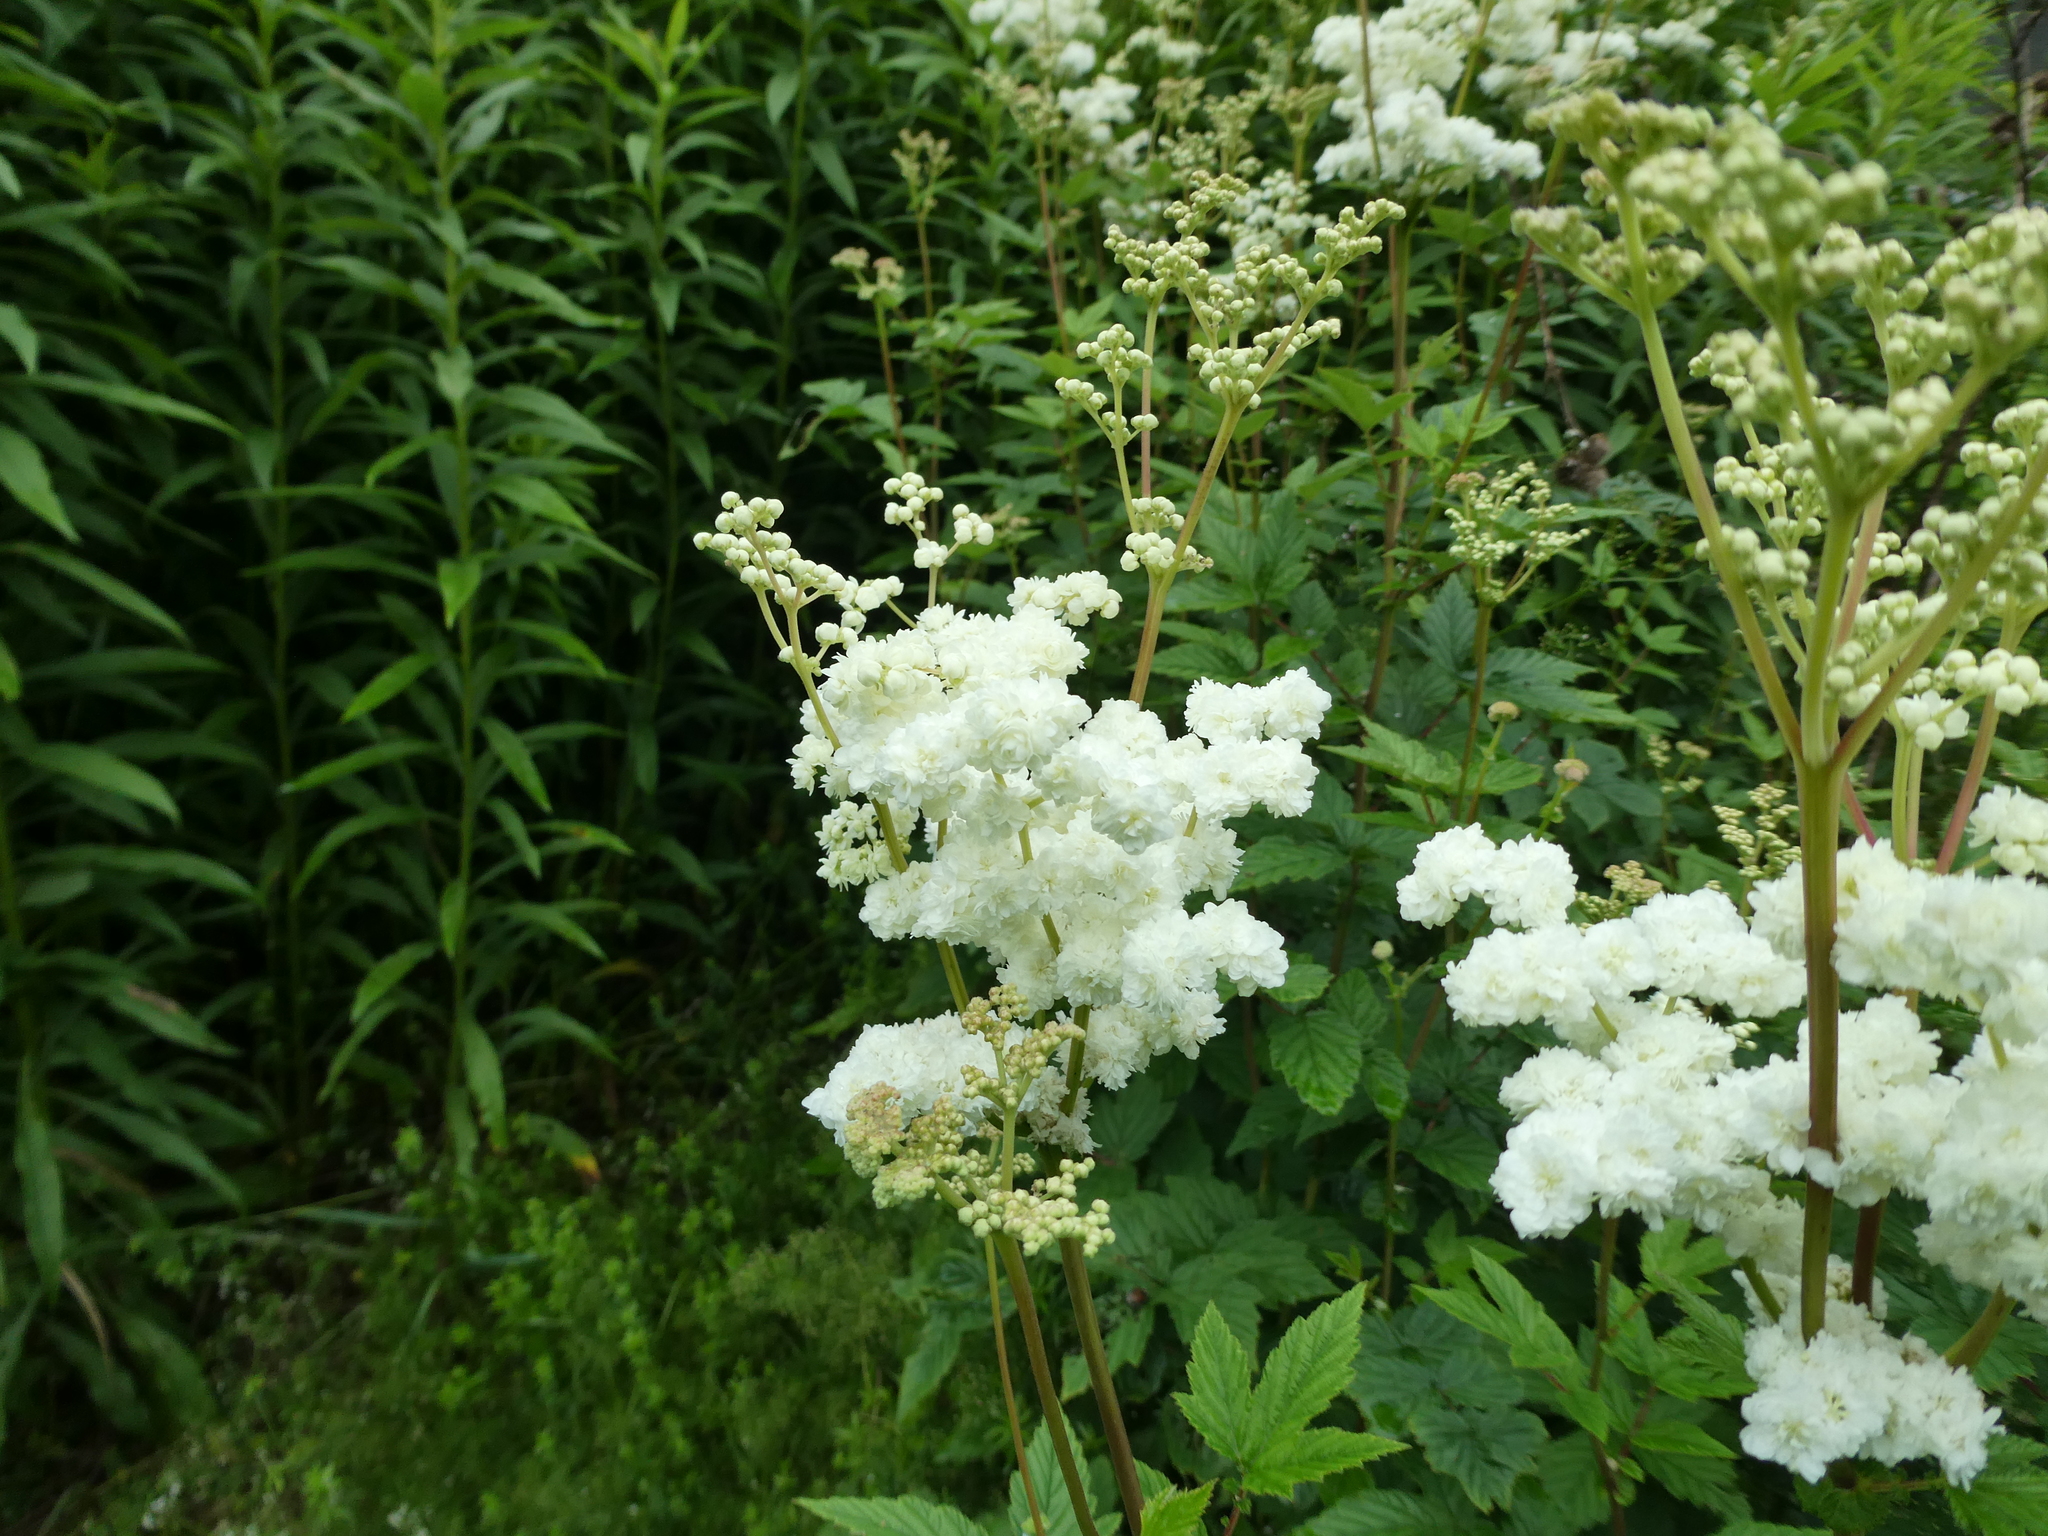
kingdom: Plantae
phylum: Tracheophyta
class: Magnoliopsida
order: Rosales
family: Rosaceae
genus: Filipendula
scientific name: Filipendula ulmaria
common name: Meadowsweet
